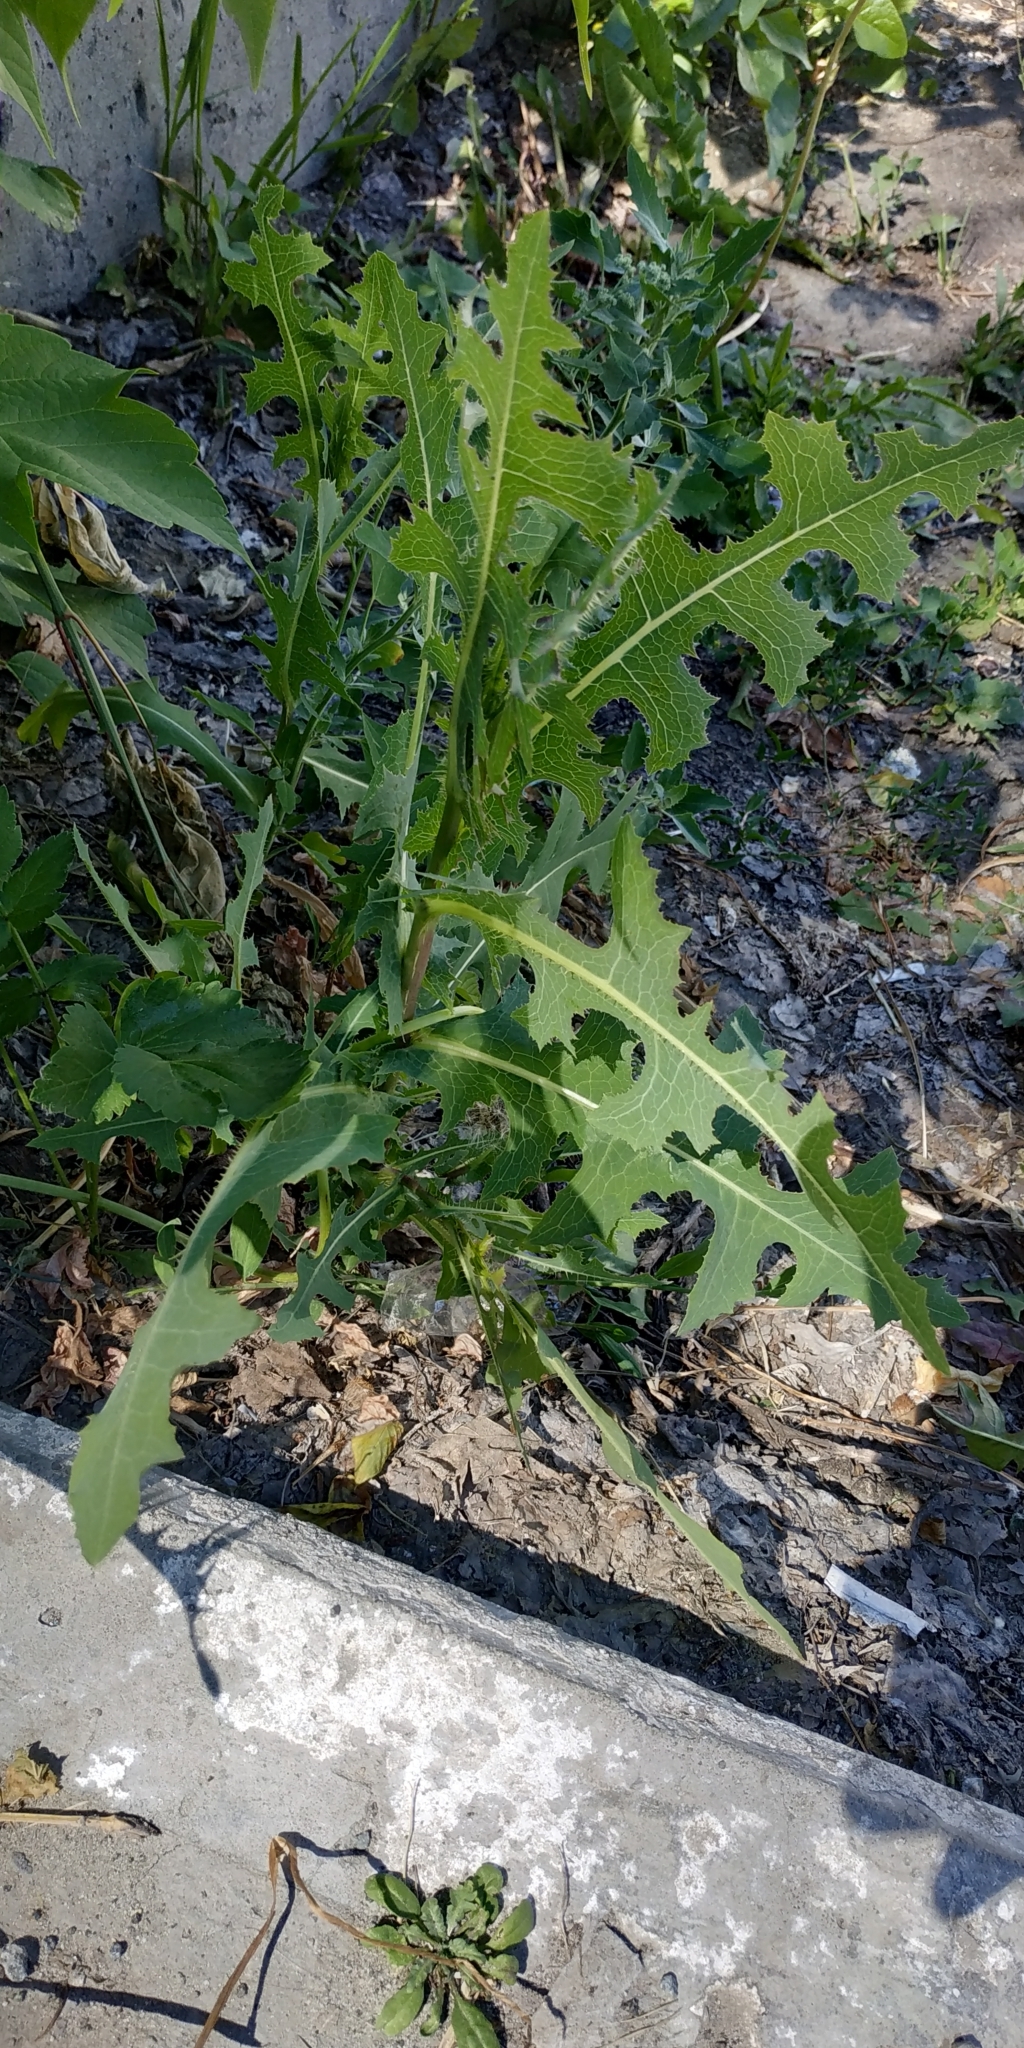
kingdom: Plantae
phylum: Tracheophyta
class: Magnoliopsida
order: Asterales
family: Asteraceae
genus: Lactuca
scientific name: Lactuca serriola
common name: Prickly lettuce
